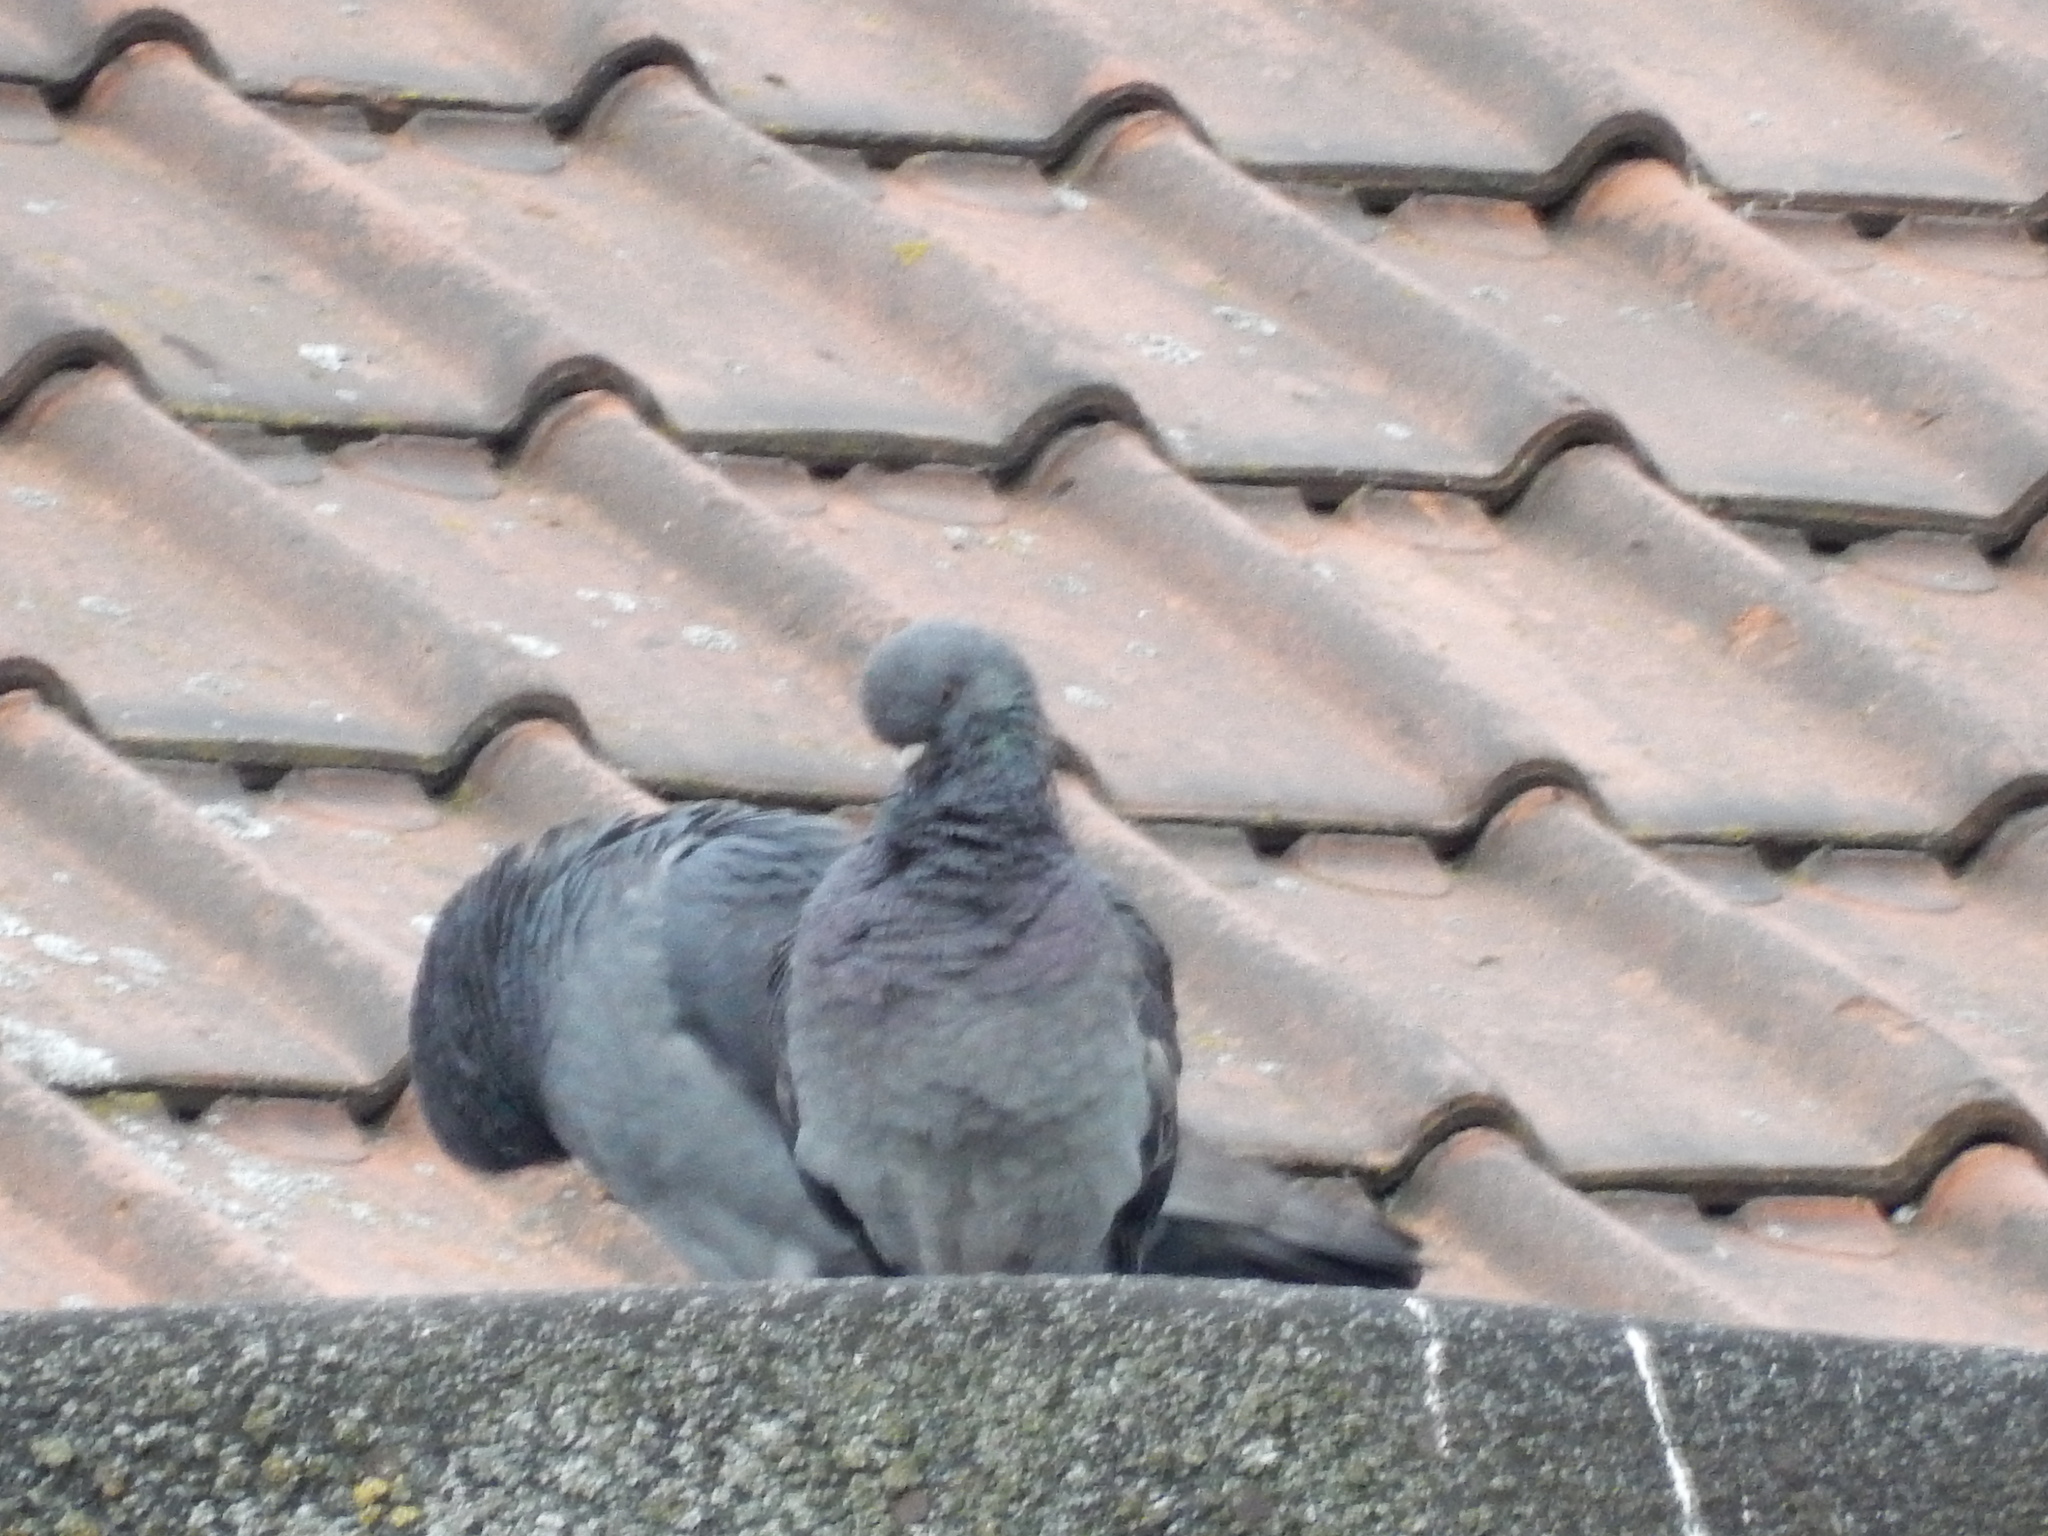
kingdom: Animalia
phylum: Chordata
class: Aves
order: Columbiformes
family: Columbidae
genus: Columba
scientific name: Columba livia
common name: Rock pigeon
